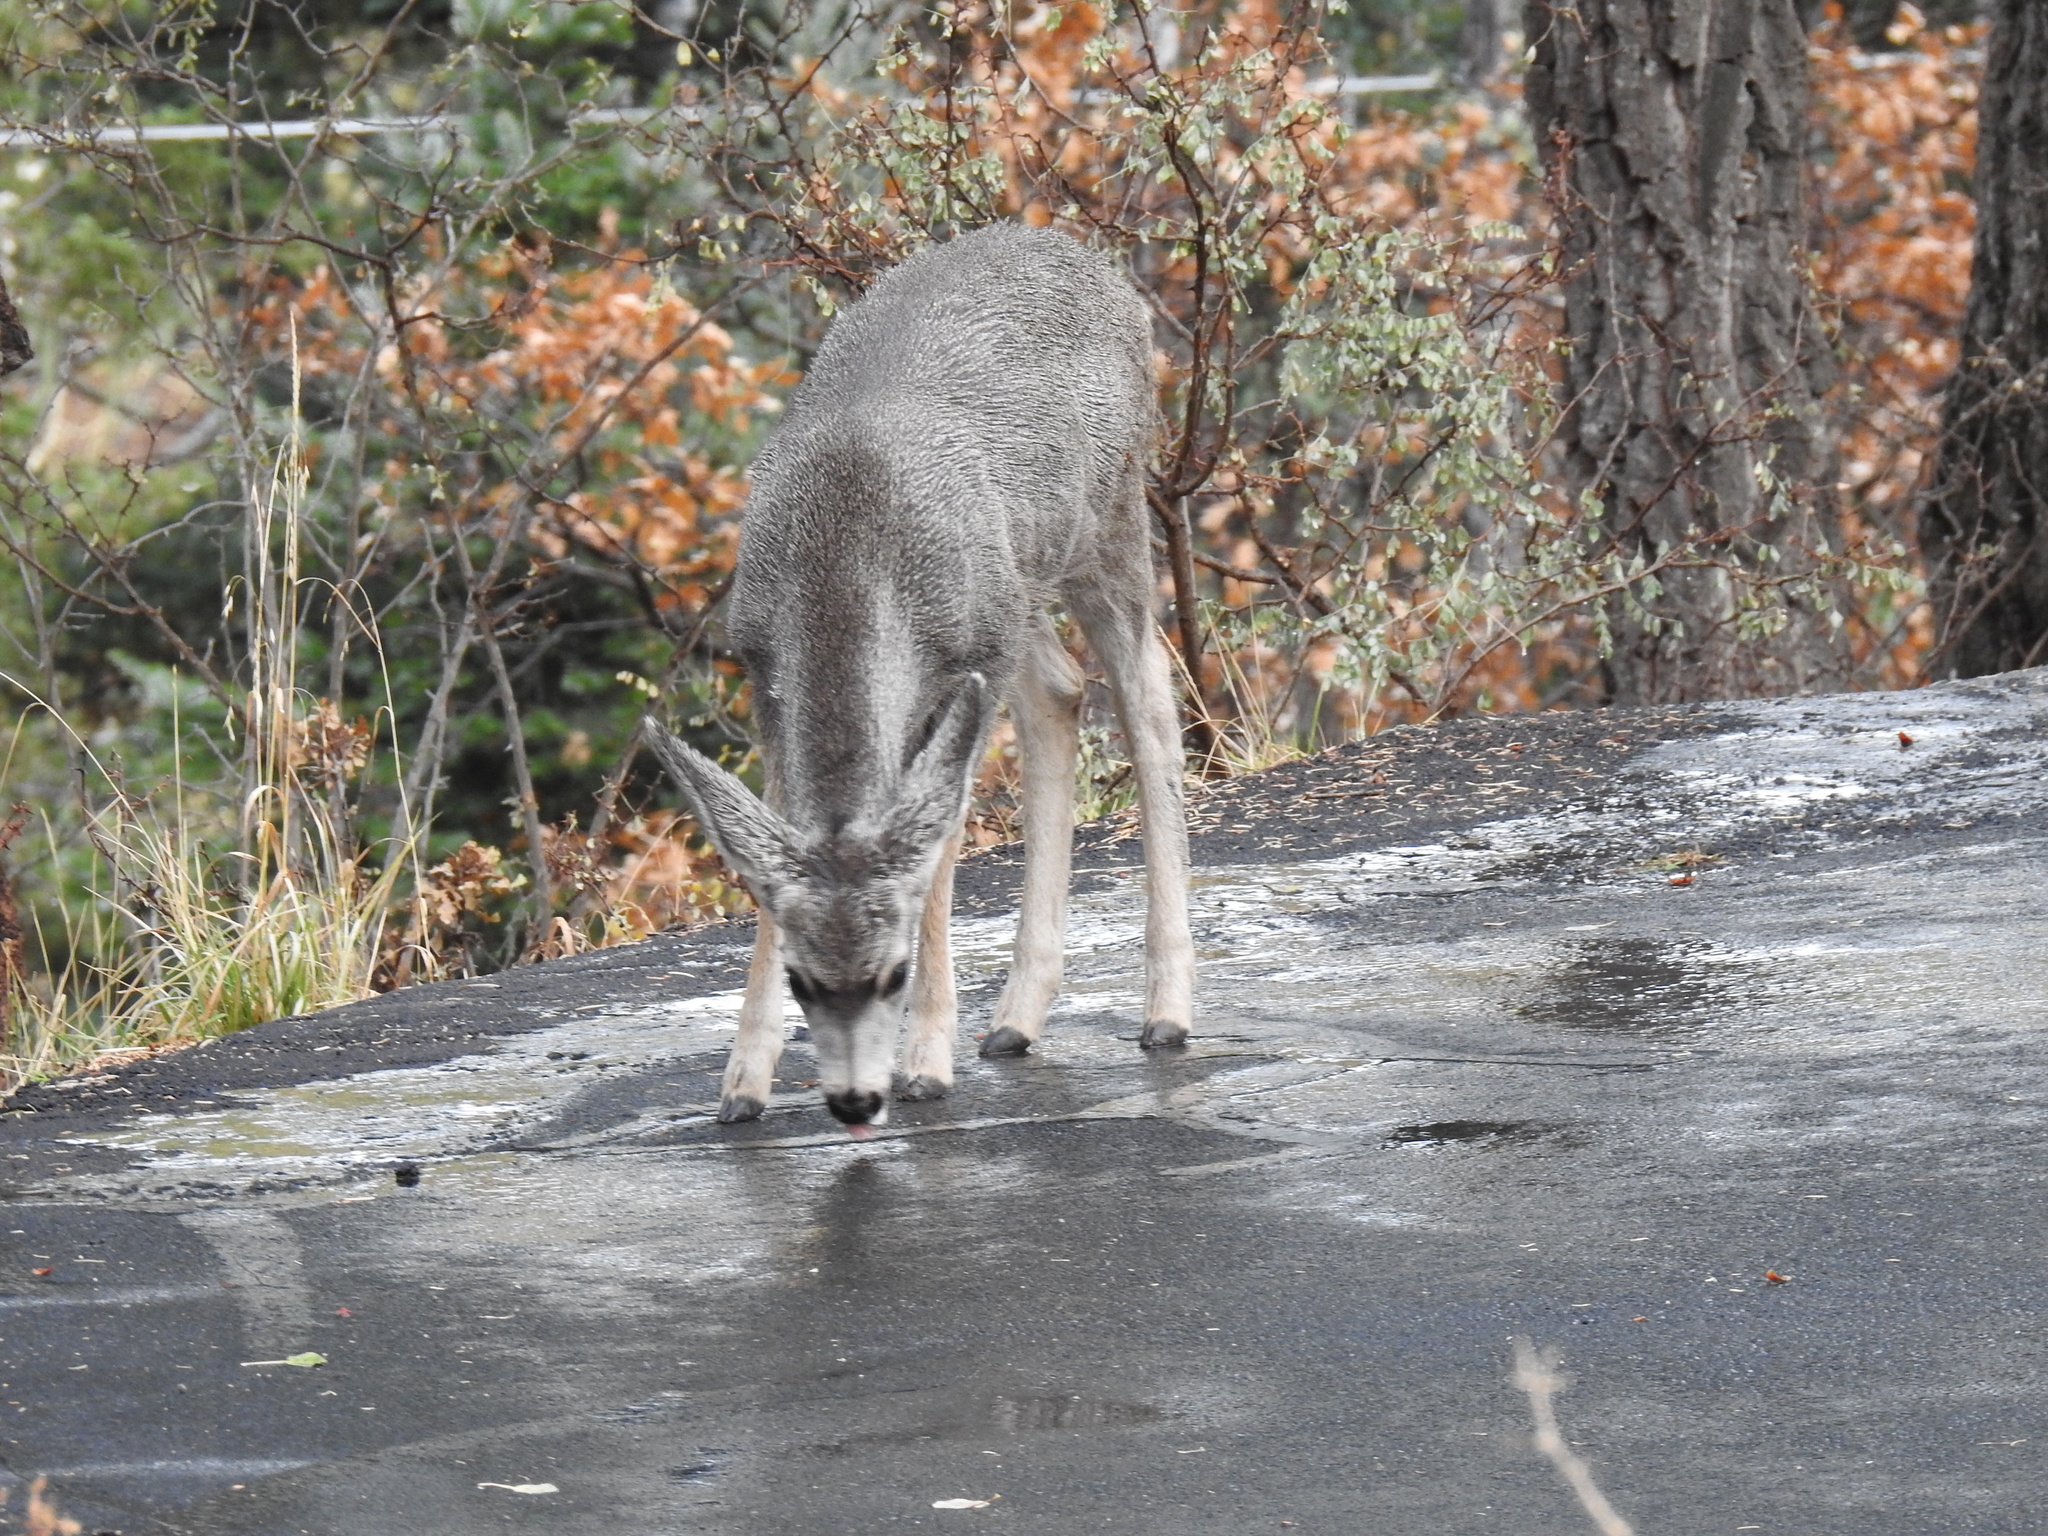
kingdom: Animalia
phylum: Chordata
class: Mammalia
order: Artiodactyla
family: Cervidae
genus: Odocoileus
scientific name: Odocoileus hemionus
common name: Mule deer
